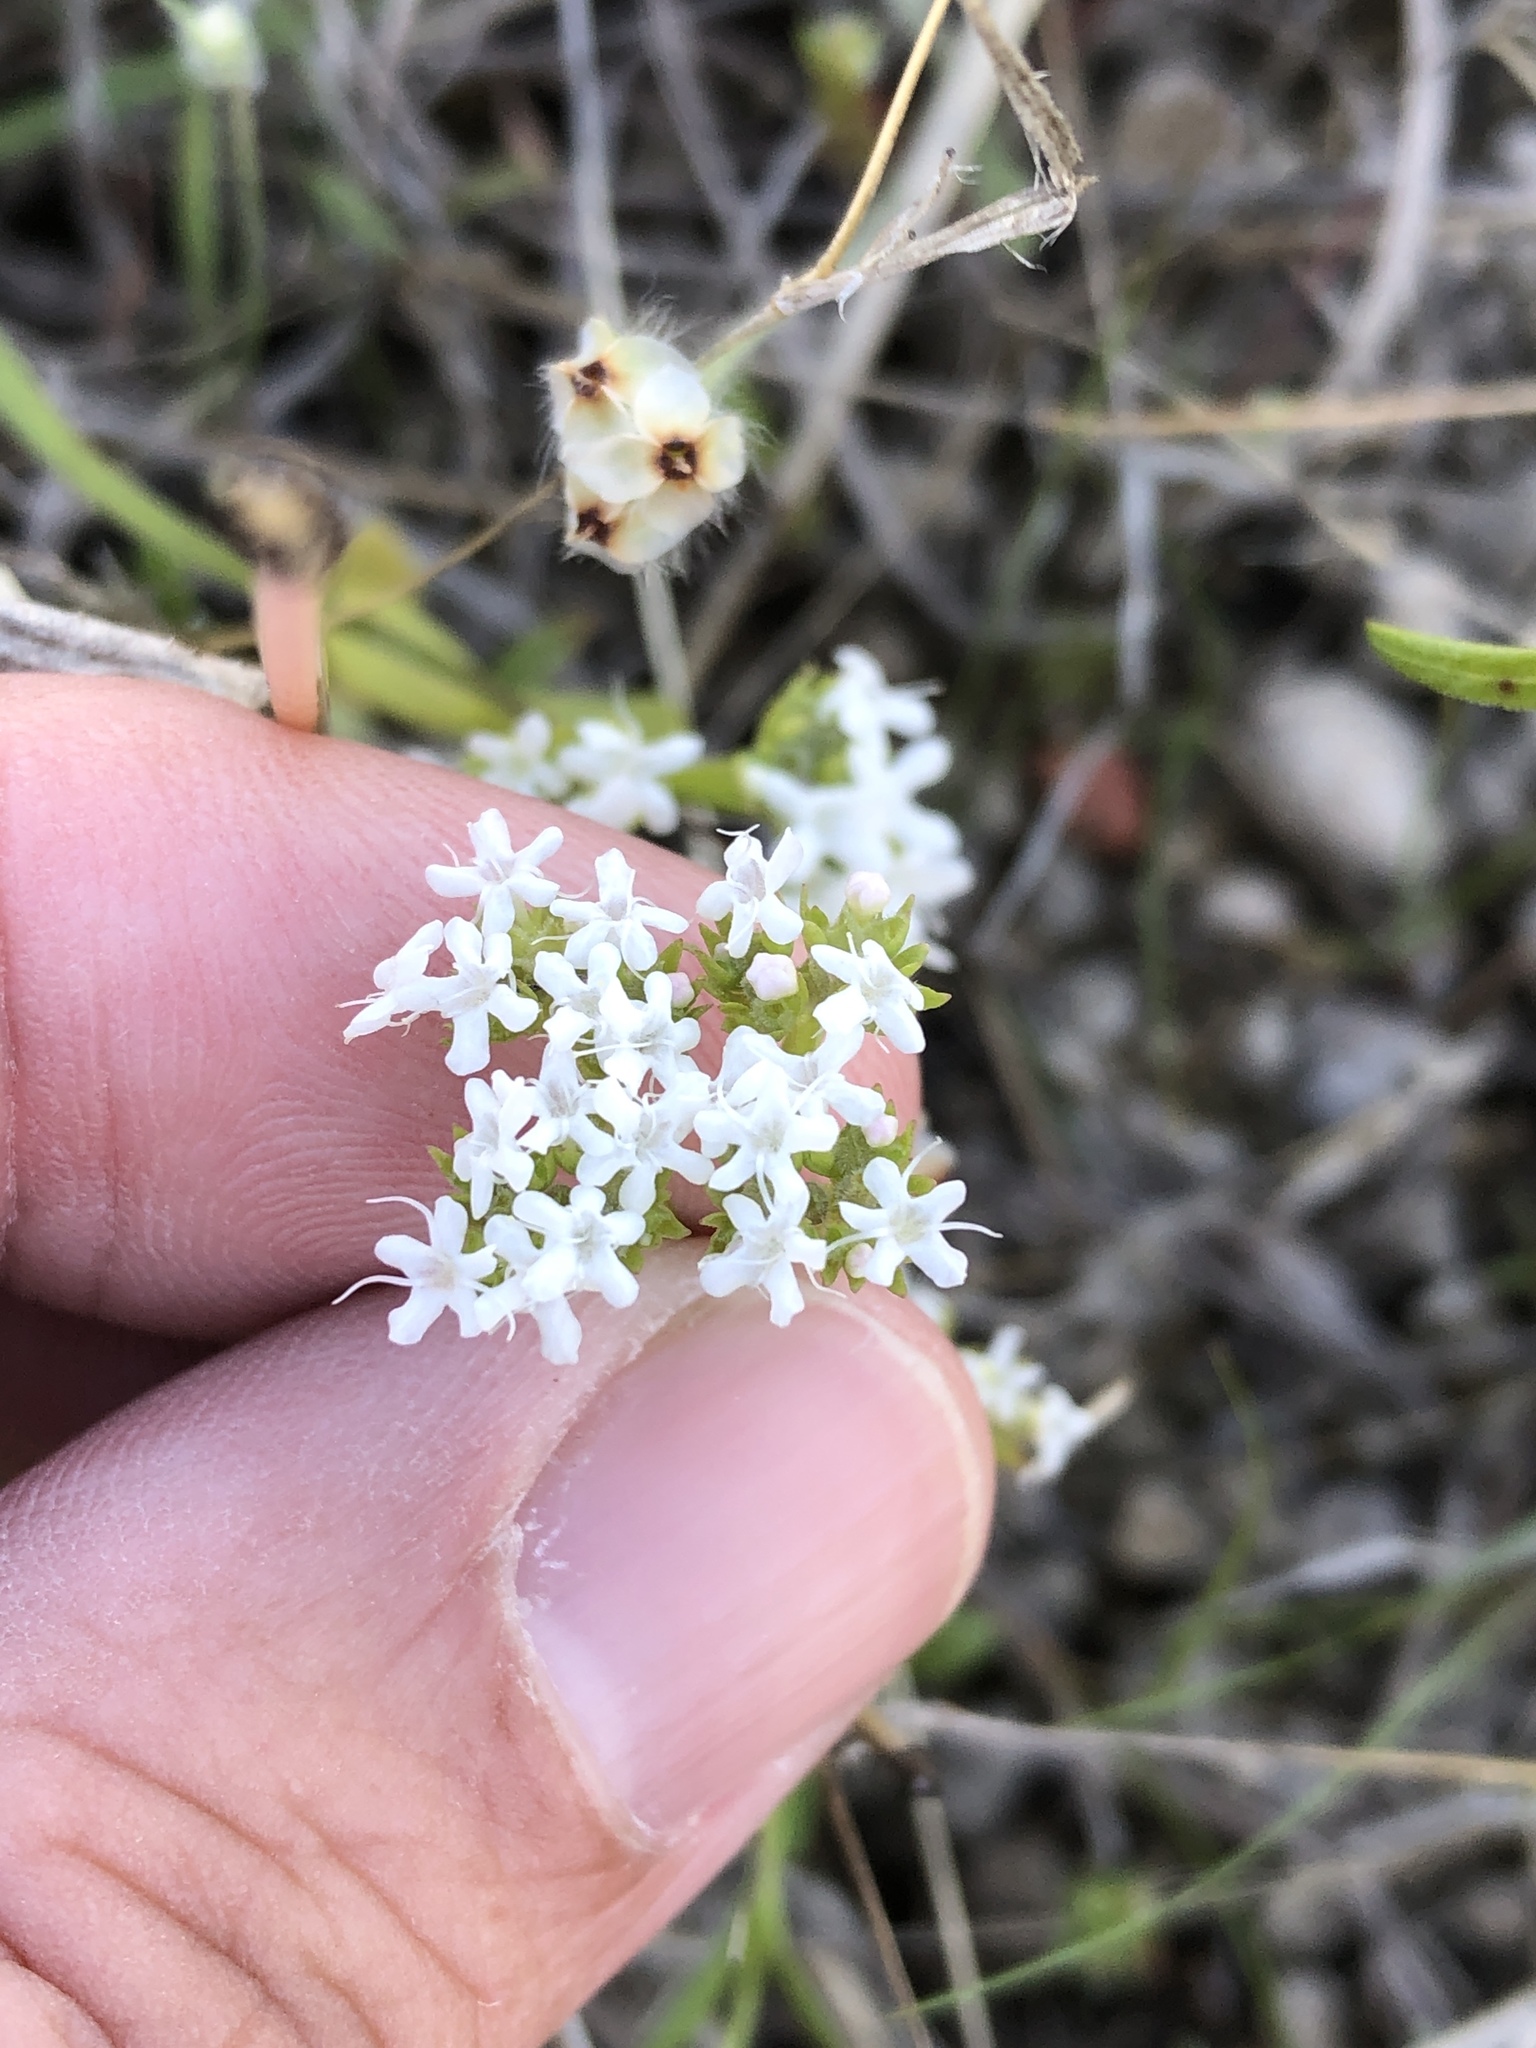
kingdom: Plantae
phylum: Tracheophyta
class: Magnoliopsida
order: Dipsacales
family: Caprifoliaceae
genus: Valerianella
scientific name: Valerianella amarella
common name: Hariy cornsalad
